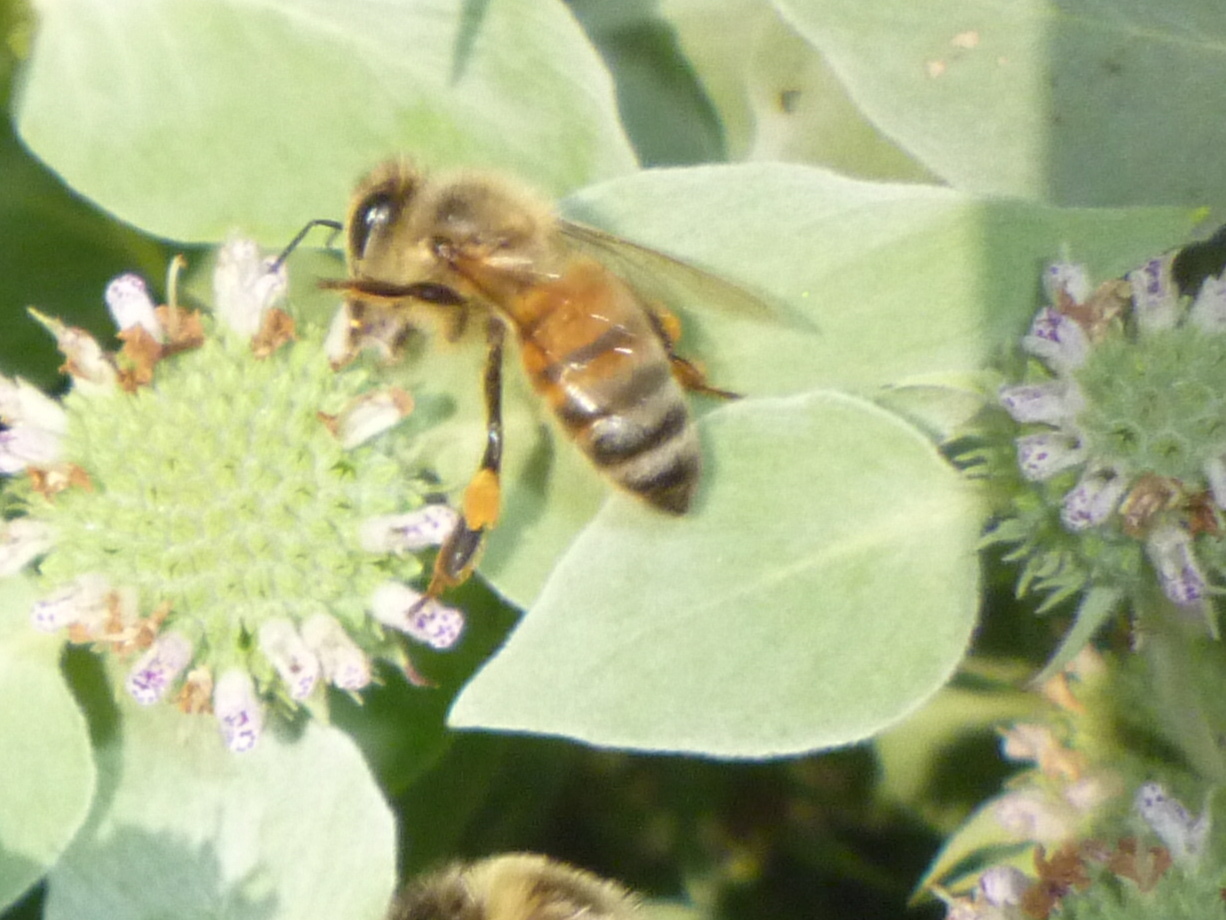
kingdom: Animalia
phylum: Arthropoda
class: Insecta
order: Hymenoptera
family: Apidae
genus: Apis
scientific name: Apis mellifera
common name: Honey bee
